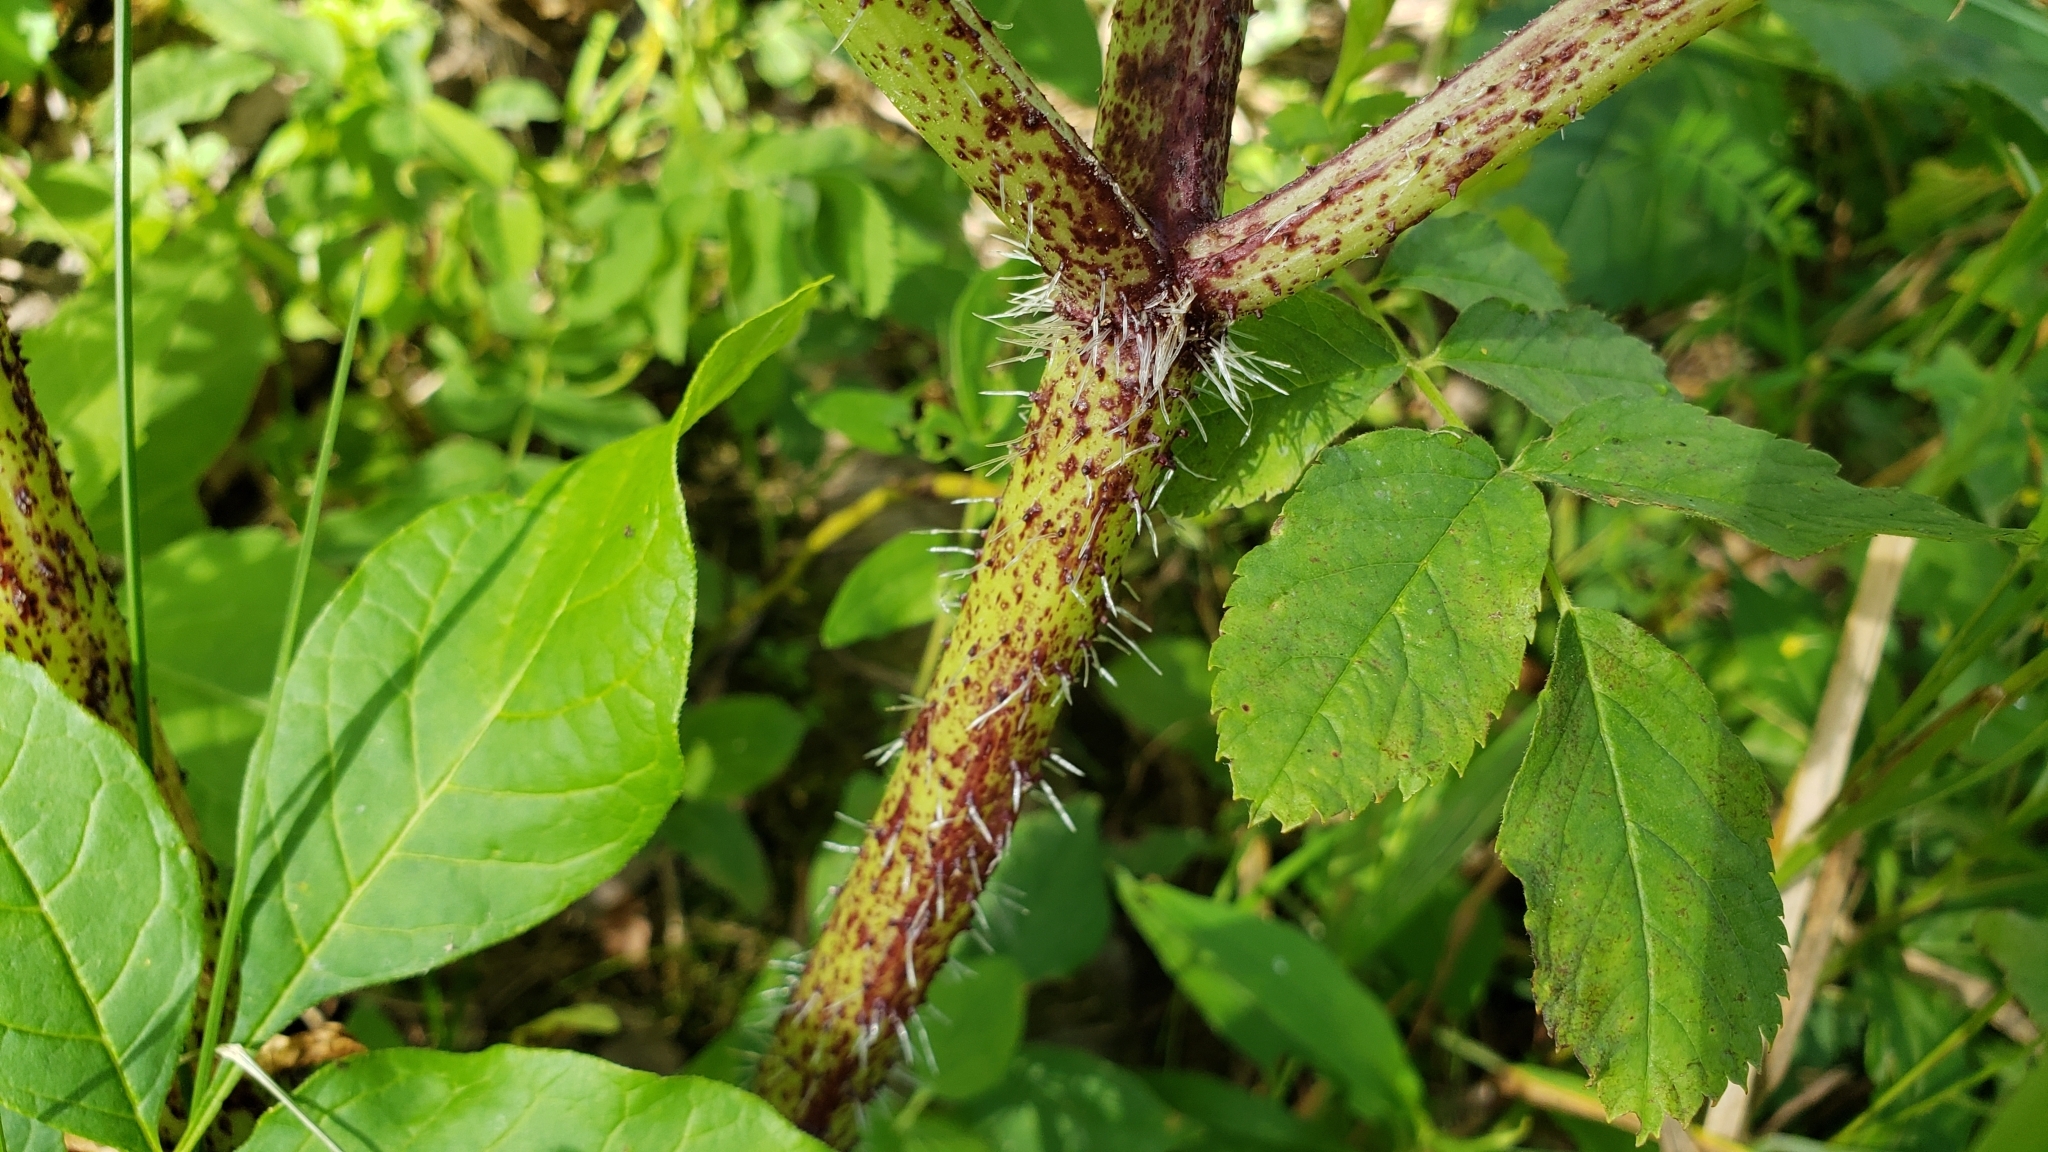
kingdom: Plantae
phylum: Tracheophyta
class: Magnoliopsida
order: Apiales
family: Apiaceae
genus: Heracleum
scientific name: Heracleum mantegazzianum
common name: Giant hogweed
